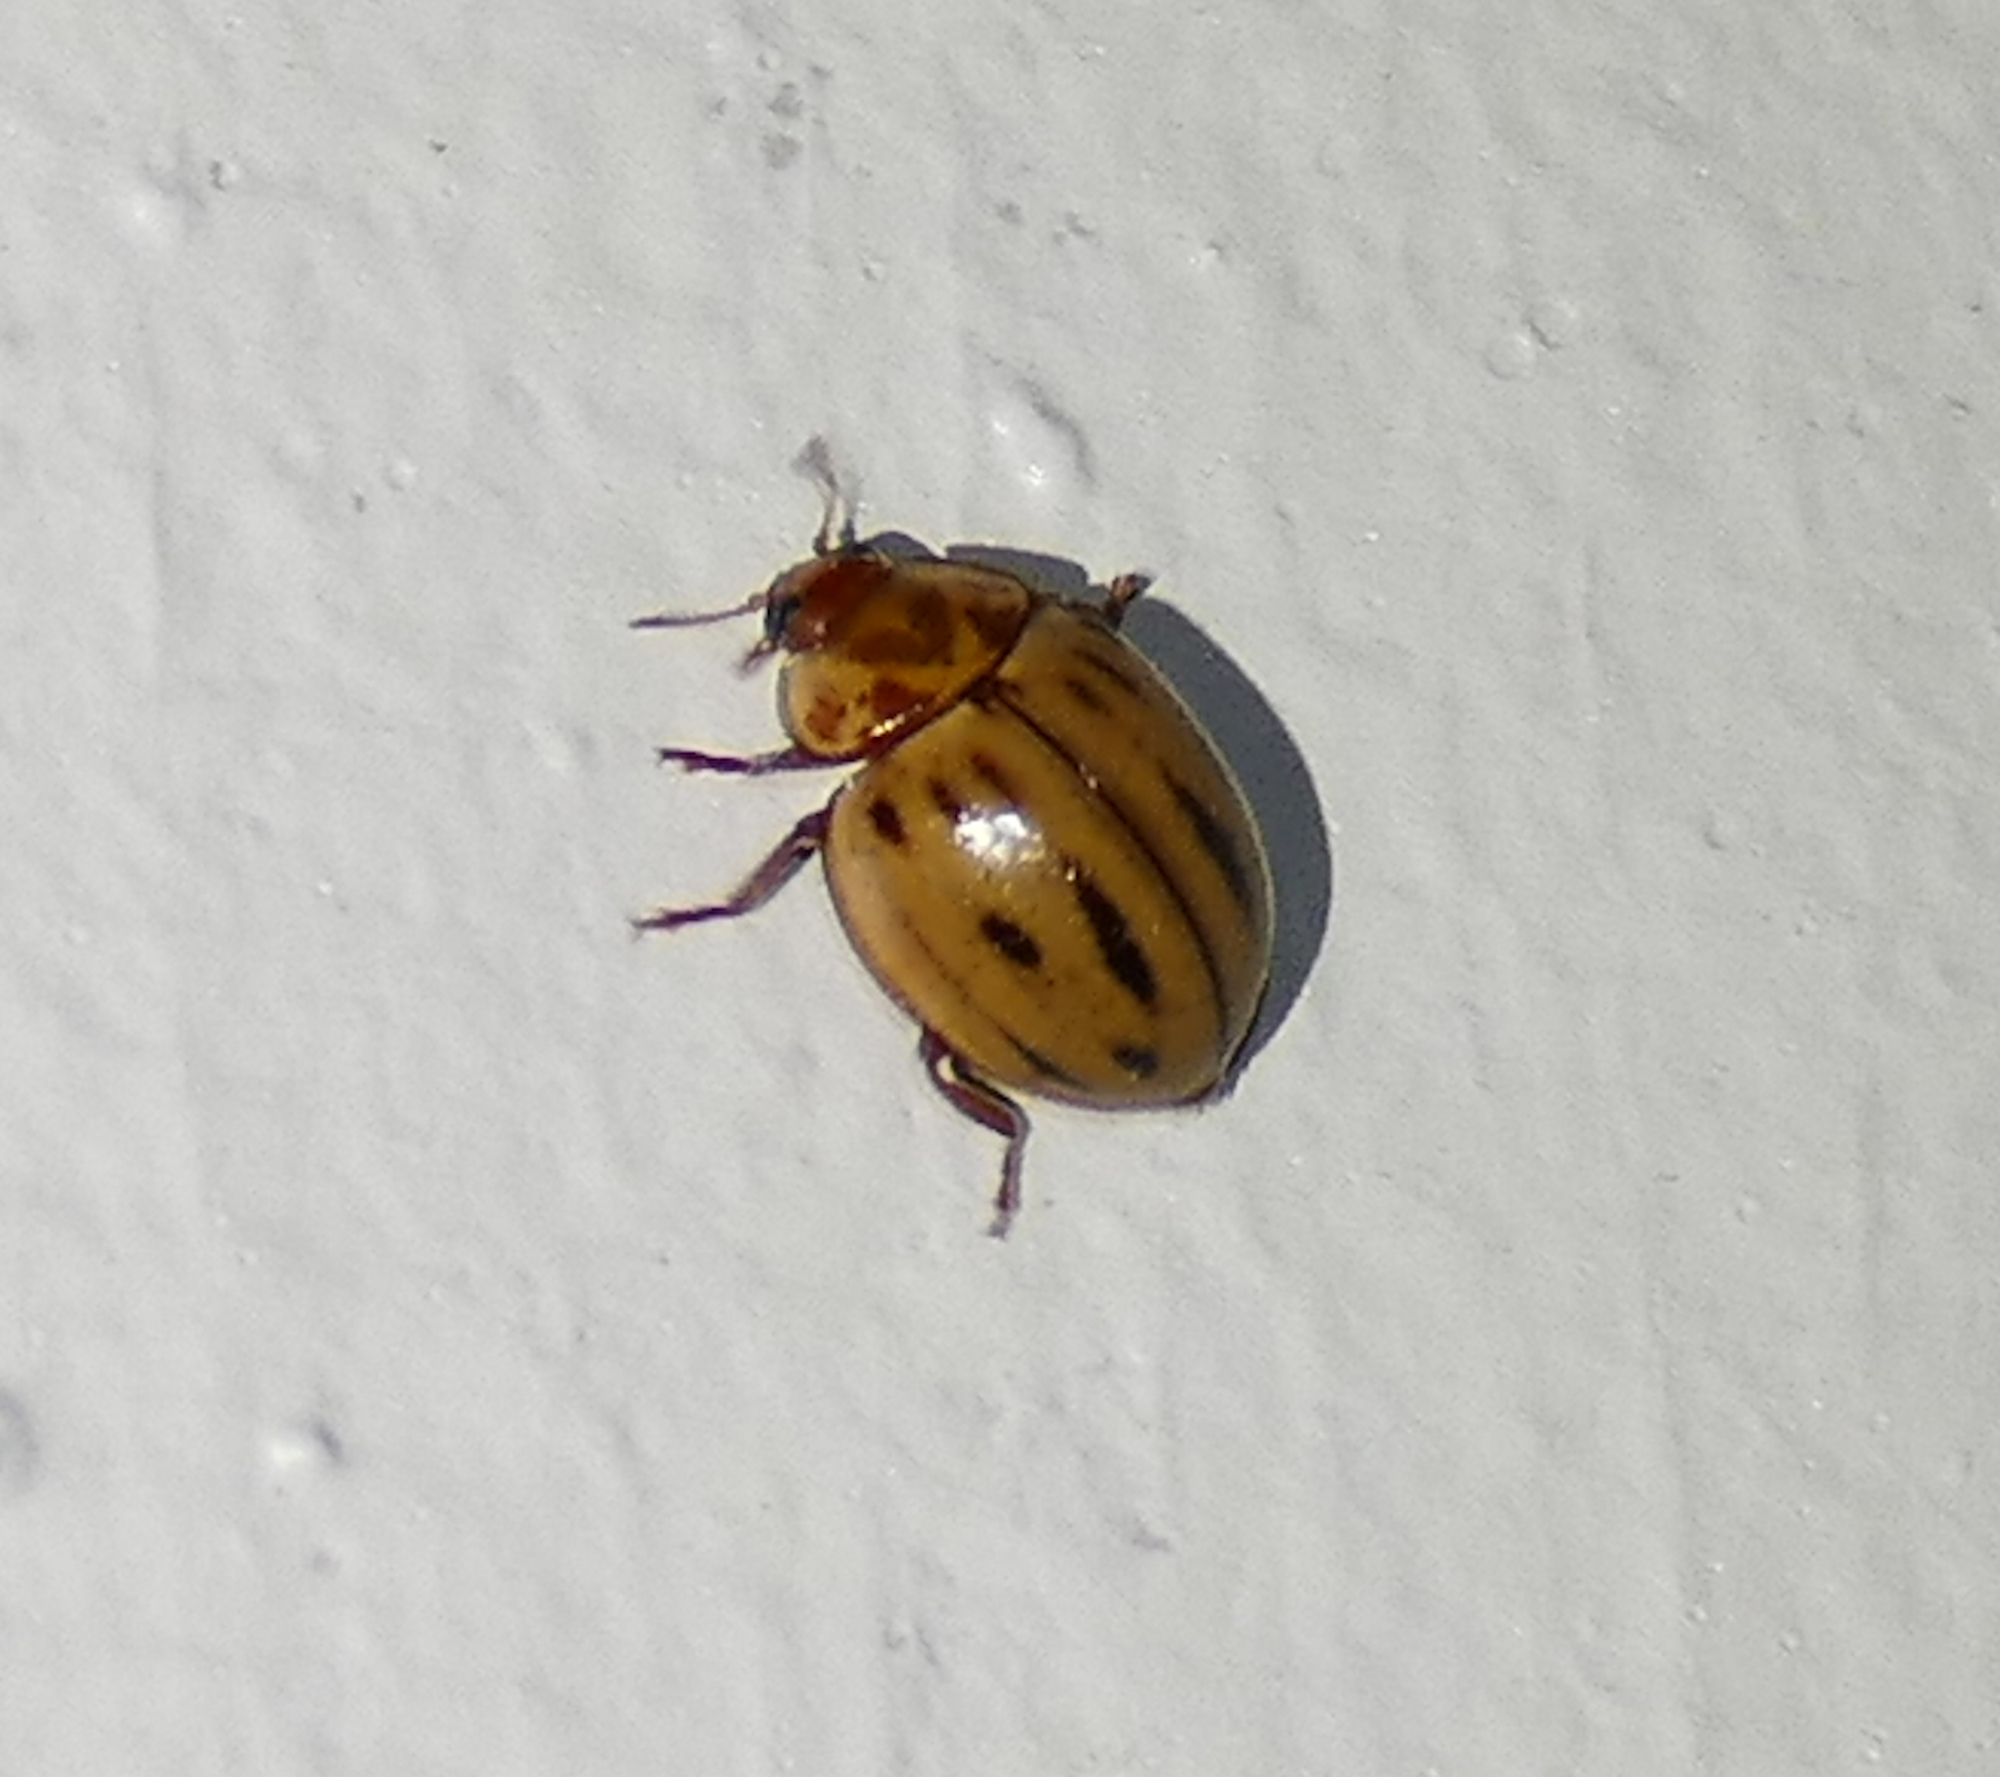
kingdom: Animalia
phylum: Arthropoda
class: Insecta
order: Coleoptera
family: Coccinellidae
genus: Myzia
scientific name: Myzia interrupta
